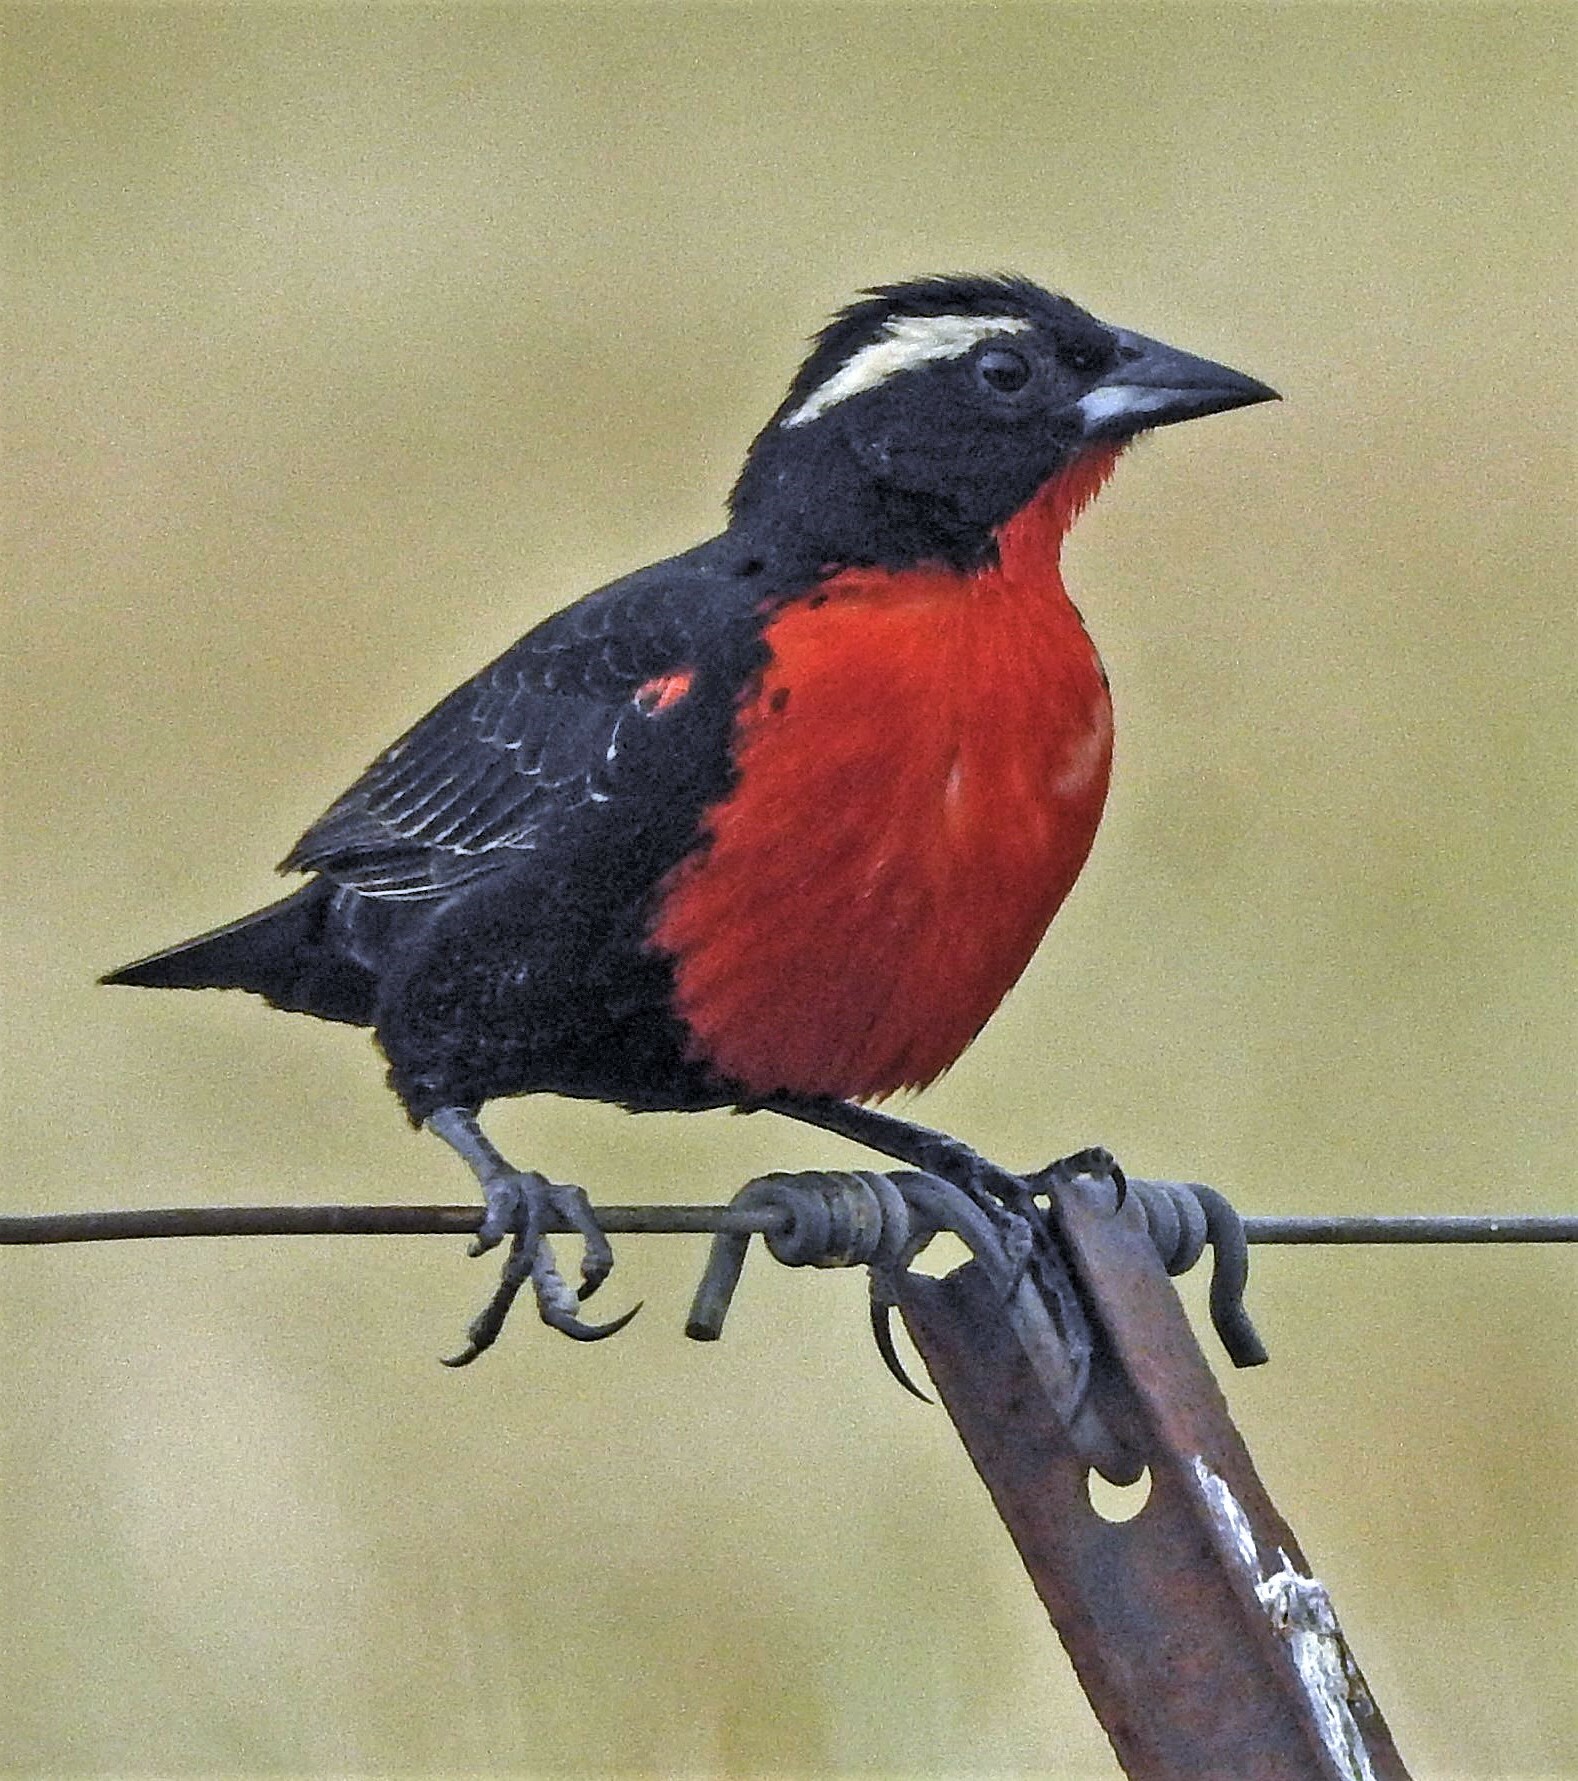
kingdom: Animalia
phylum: Chordata
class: Aves
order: Passeriformes
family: Icteridae
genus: Sturnella
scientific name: Sturnella superciliaris
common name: White-browed blackbird
